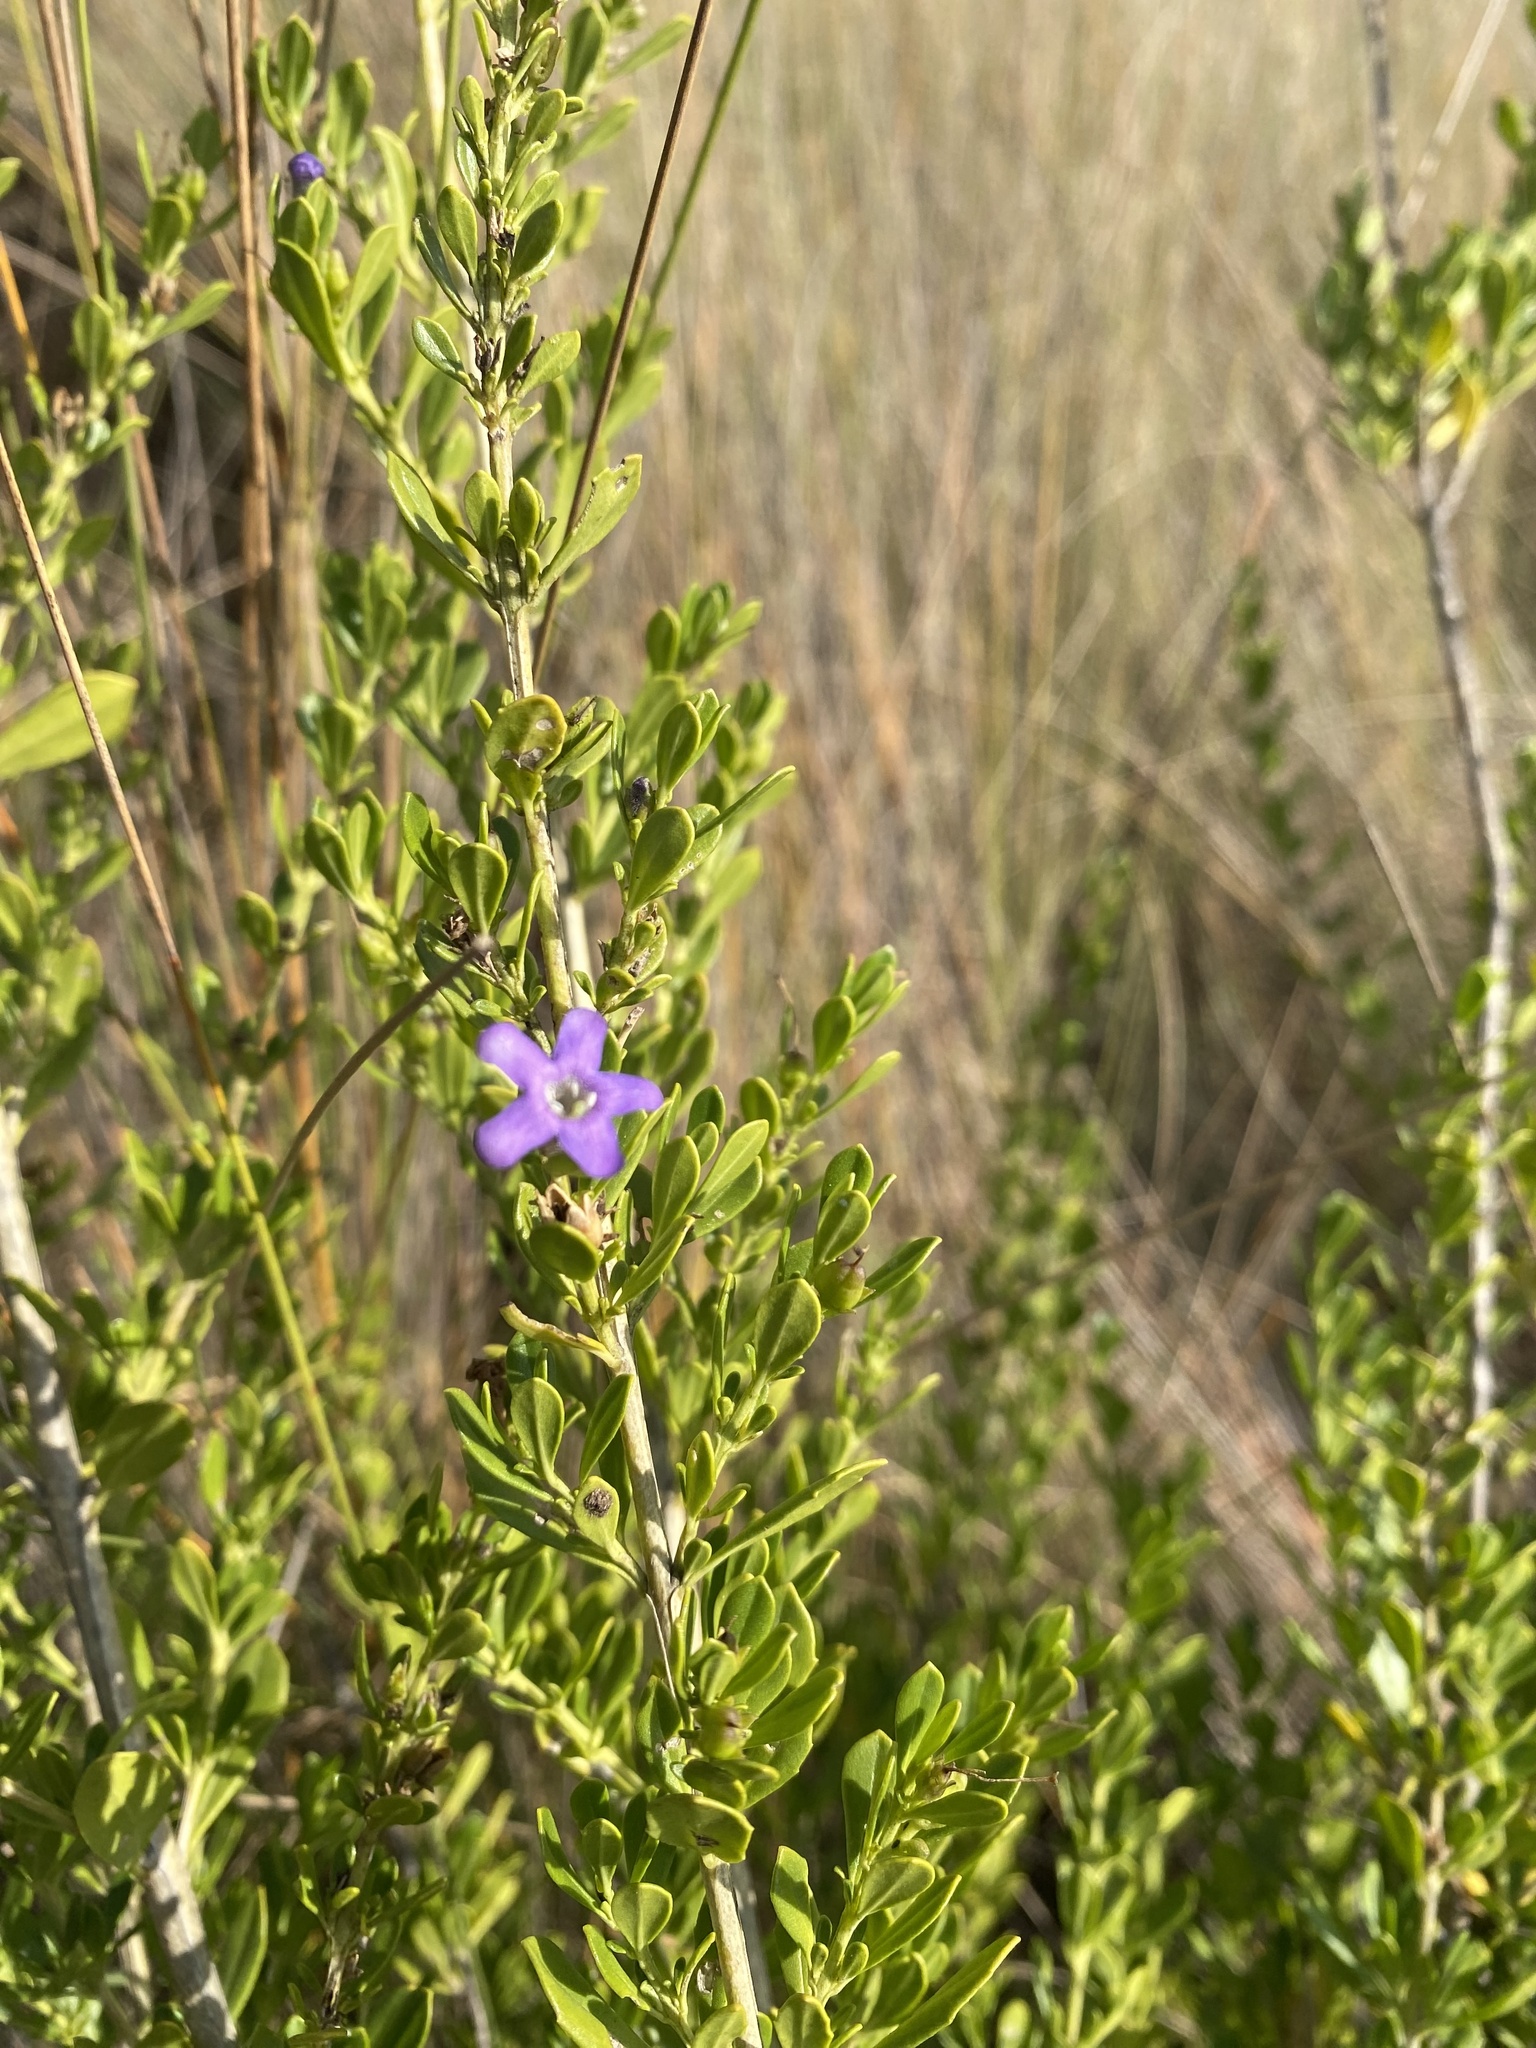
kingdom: Plantae
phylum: Tracheophyta
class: Magnoliopsida
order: Lamiales
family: Scrophulariaceae
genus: Freylinia
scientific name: Freylinia tropica
